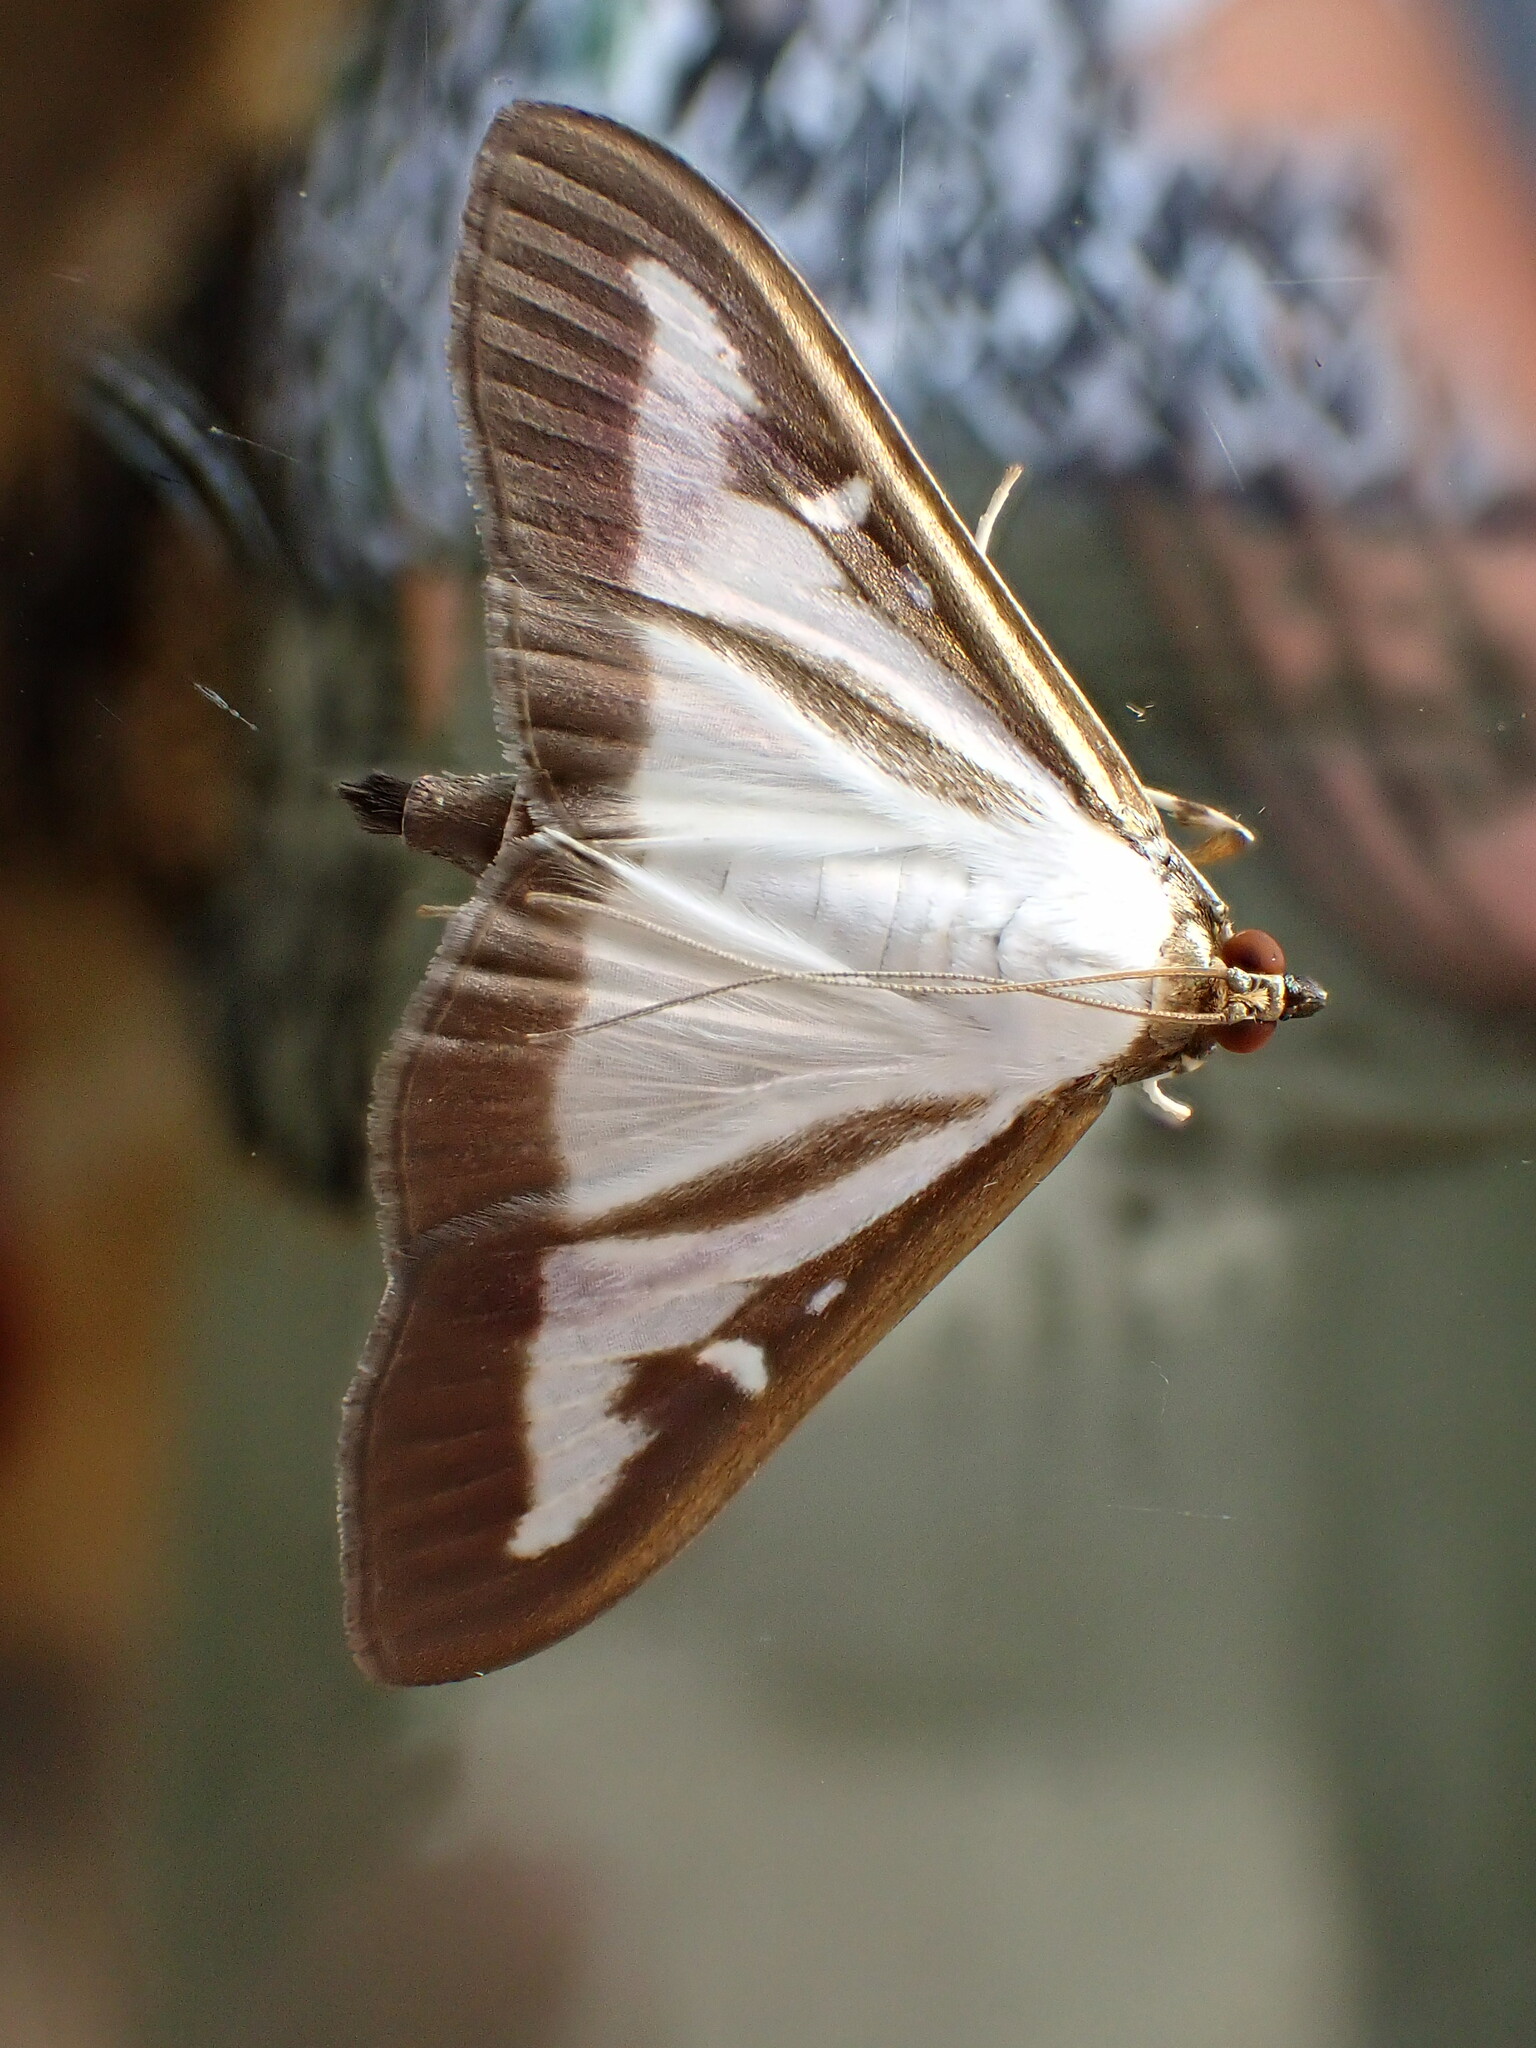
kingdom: Animalia
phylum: Arthropoda
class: Insecta
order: Lepidoptera
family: Crambidae
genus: Cydalima
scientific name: Cydalima perspectalis
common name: Box tree moth
